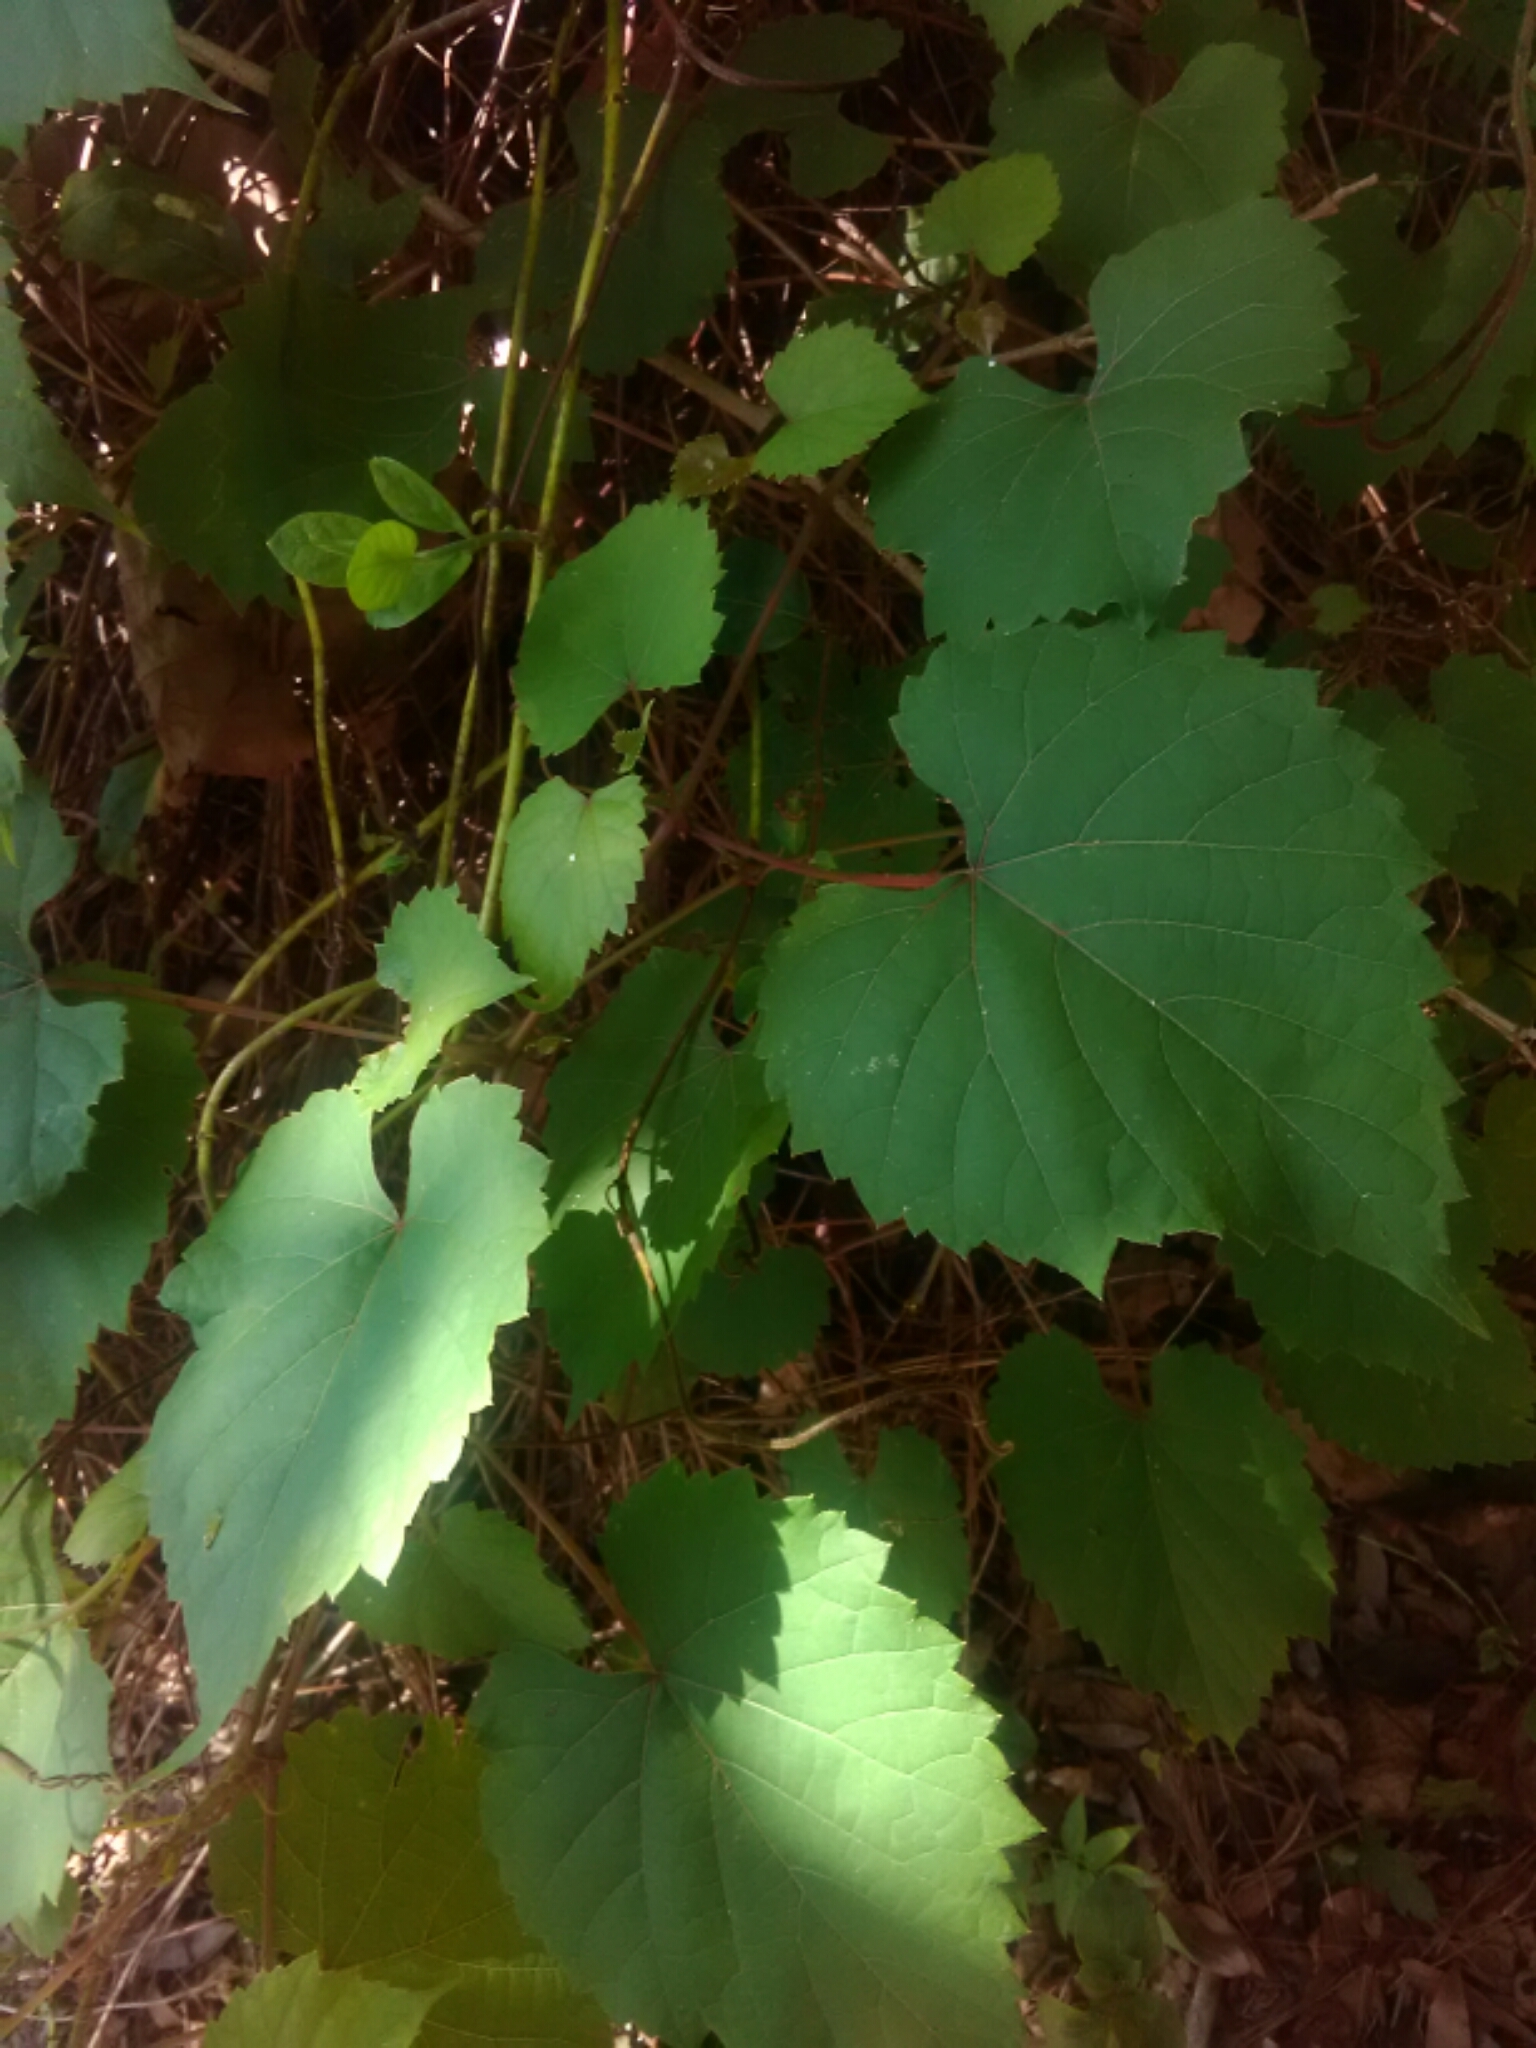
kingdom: Plantae
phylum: Tracheophyta
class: Magnoliopsida
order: Vitales
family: Vitaceae
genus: Vitis
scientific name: Vitis rotundifolia
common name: Muscadine grape
